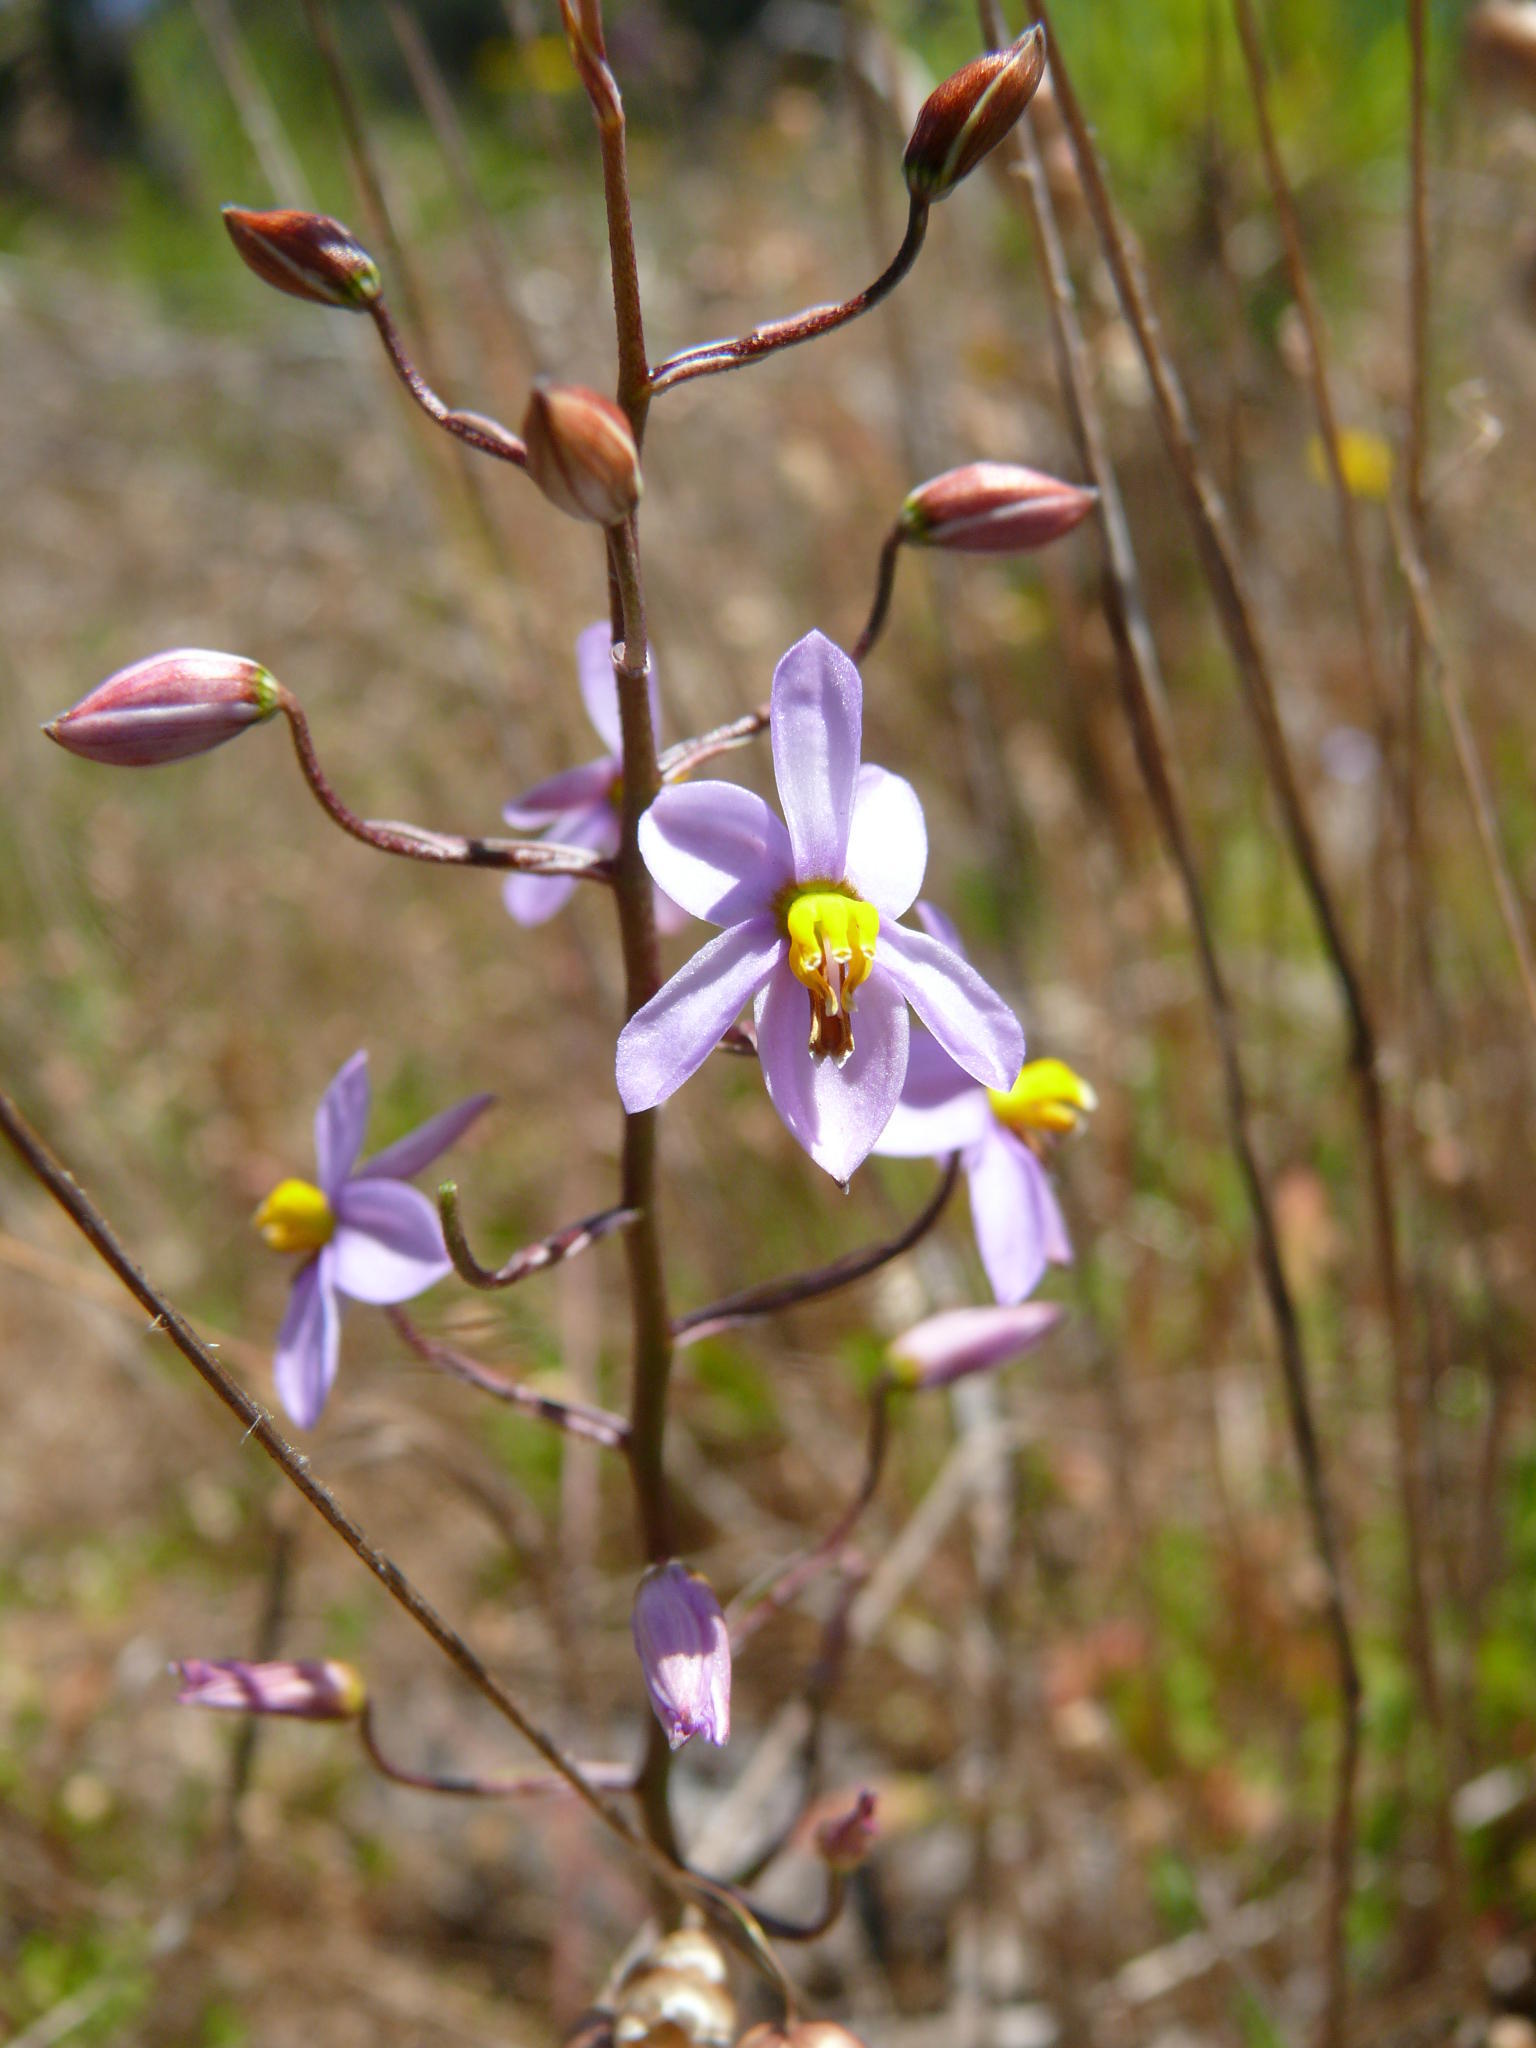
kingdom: Plantae
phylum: Tracheophyta
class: Liliopsida
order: Asparagales
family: Tecophilaeaceae
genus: Cyanella
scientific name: Cyanella hyacinthoides
